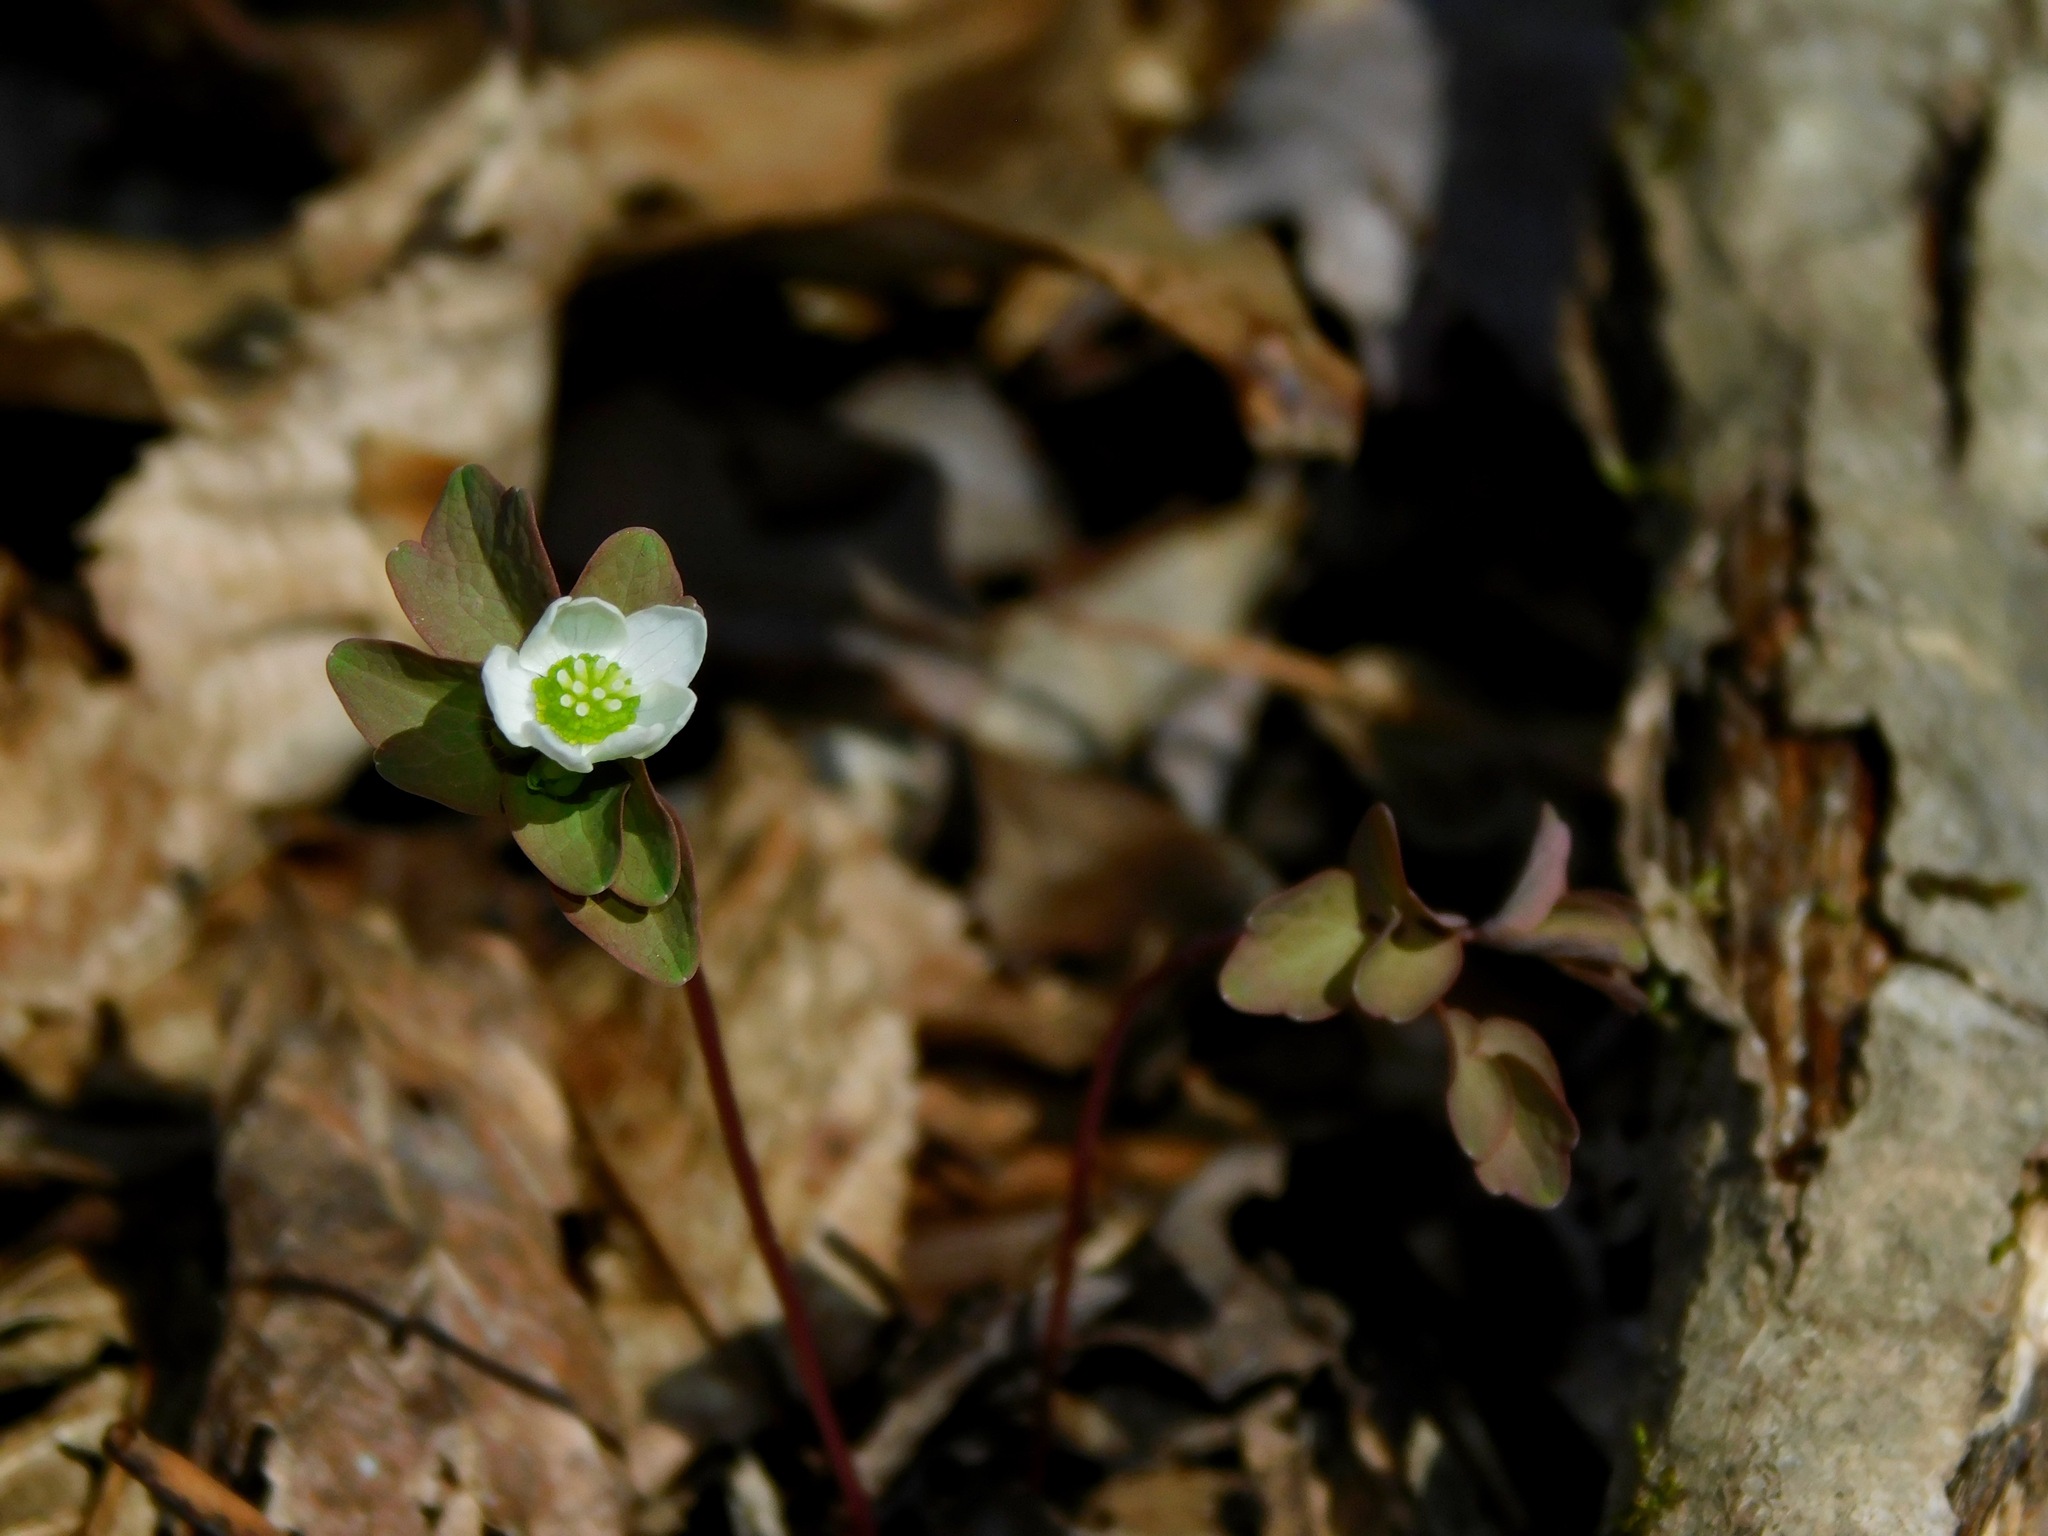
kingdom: Plantae
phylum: Tracheophyta
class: Magnoliopsida
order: Ranunculales
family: Ranunculaceae
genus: Thalictrum
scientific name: Thalictrum thalictroides
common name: Rue-anemone
